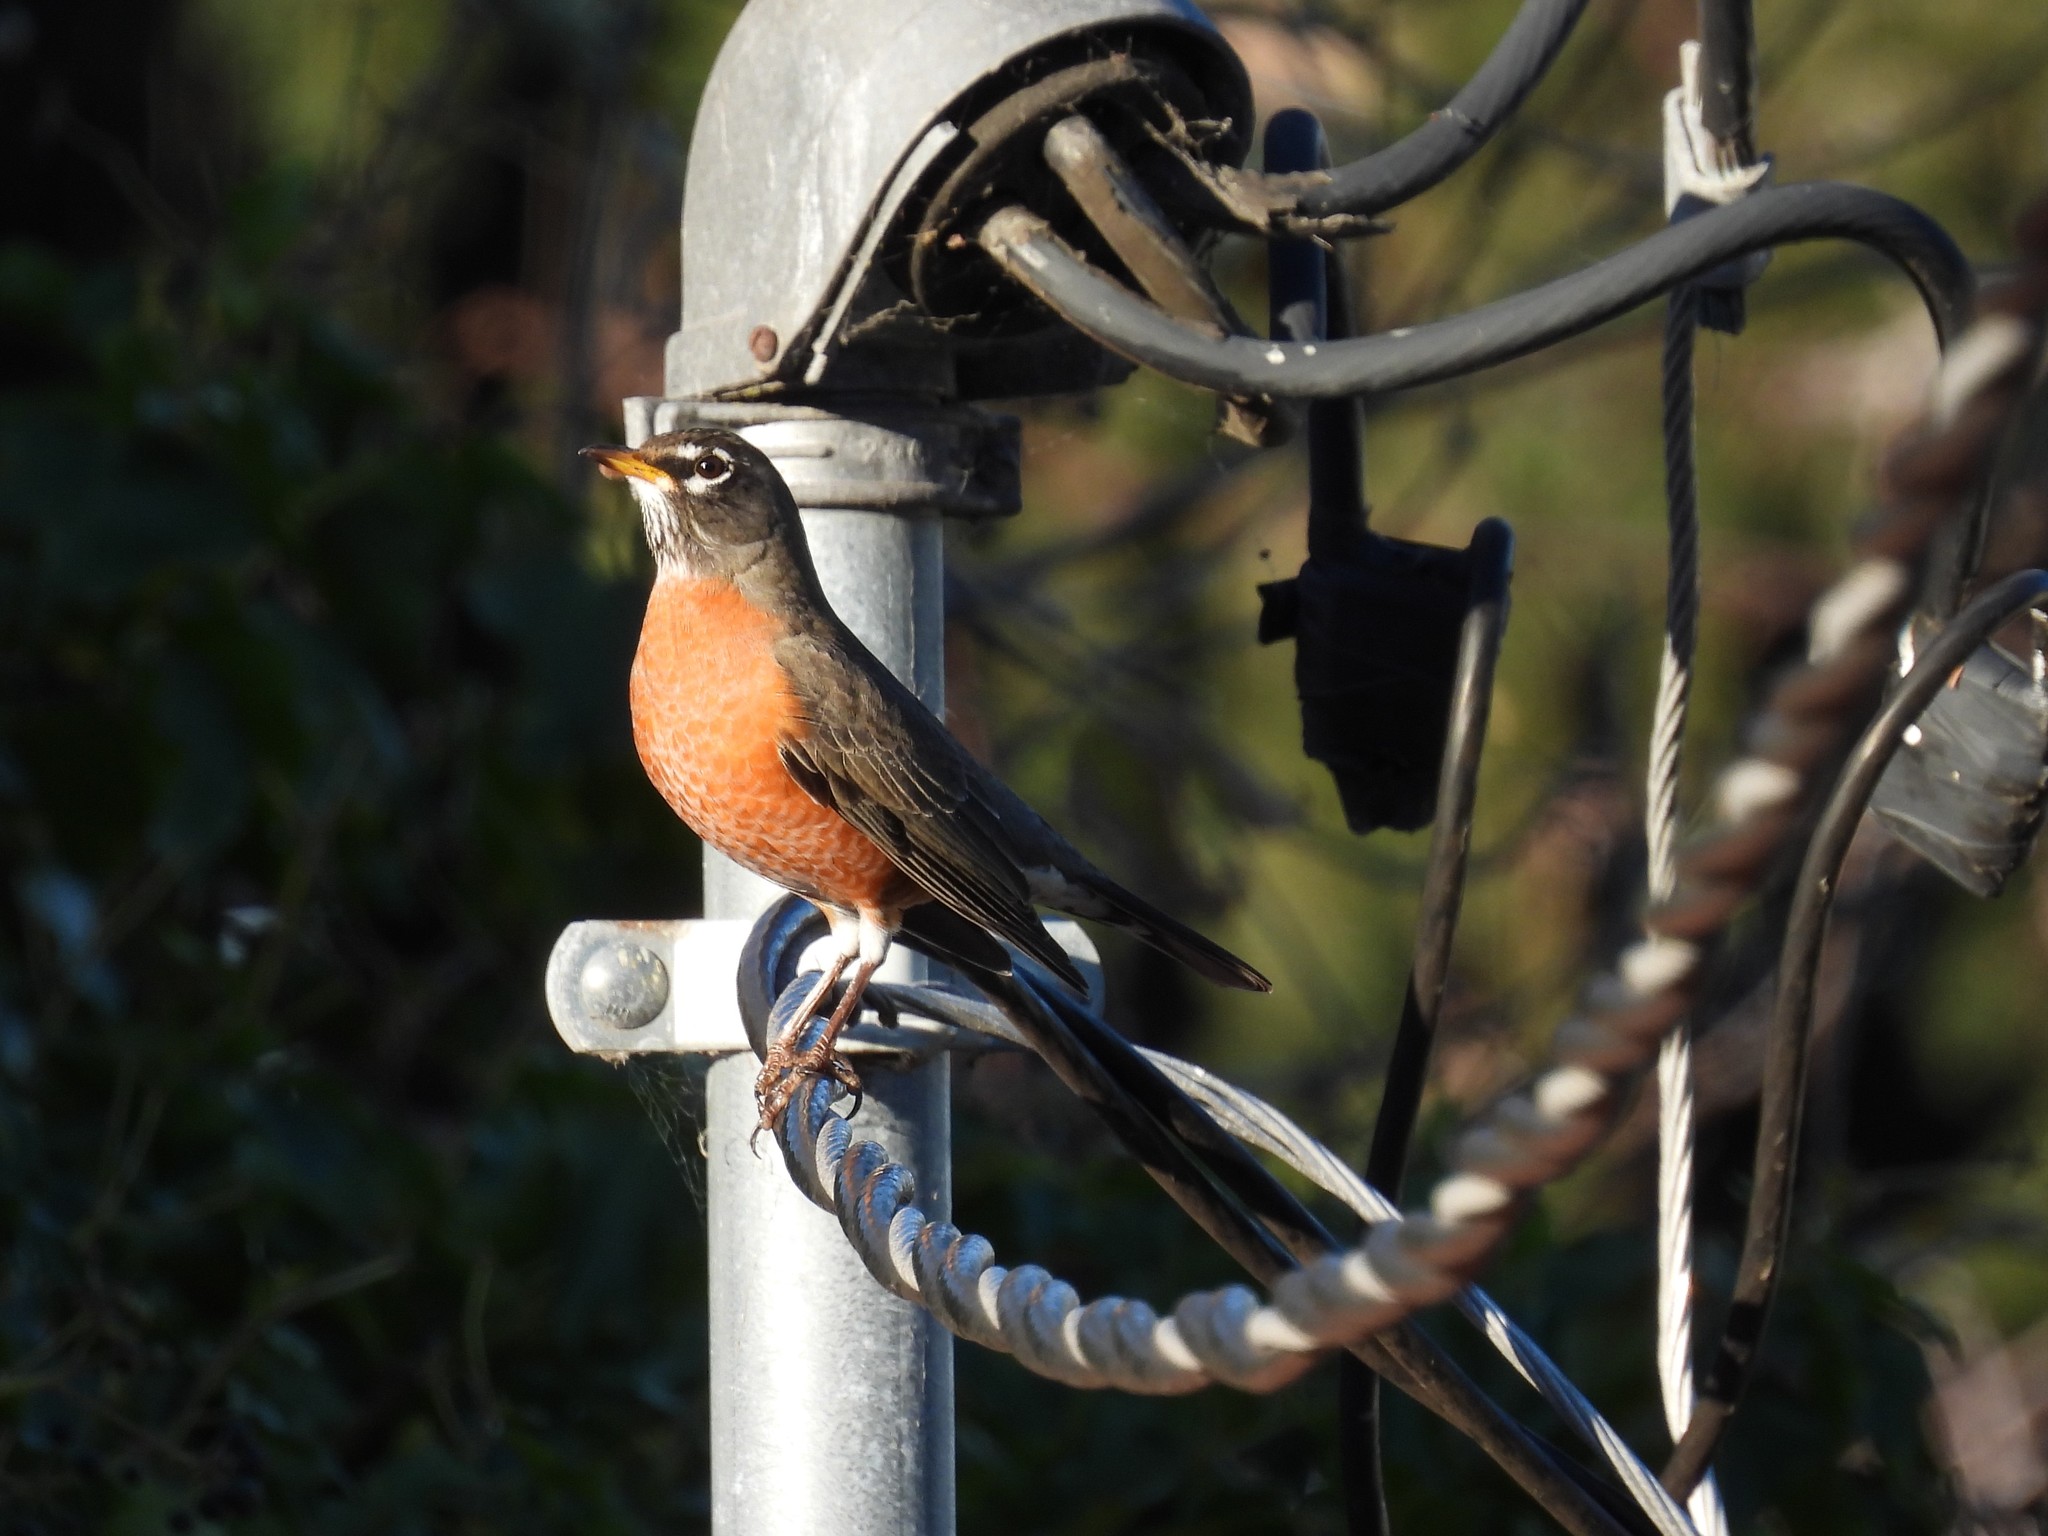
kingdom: Animalia
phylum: Chordata
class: Aves
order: Passeriformes
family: Turdidae
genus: Turdus
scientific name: Turdus migratorius
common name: American robin
